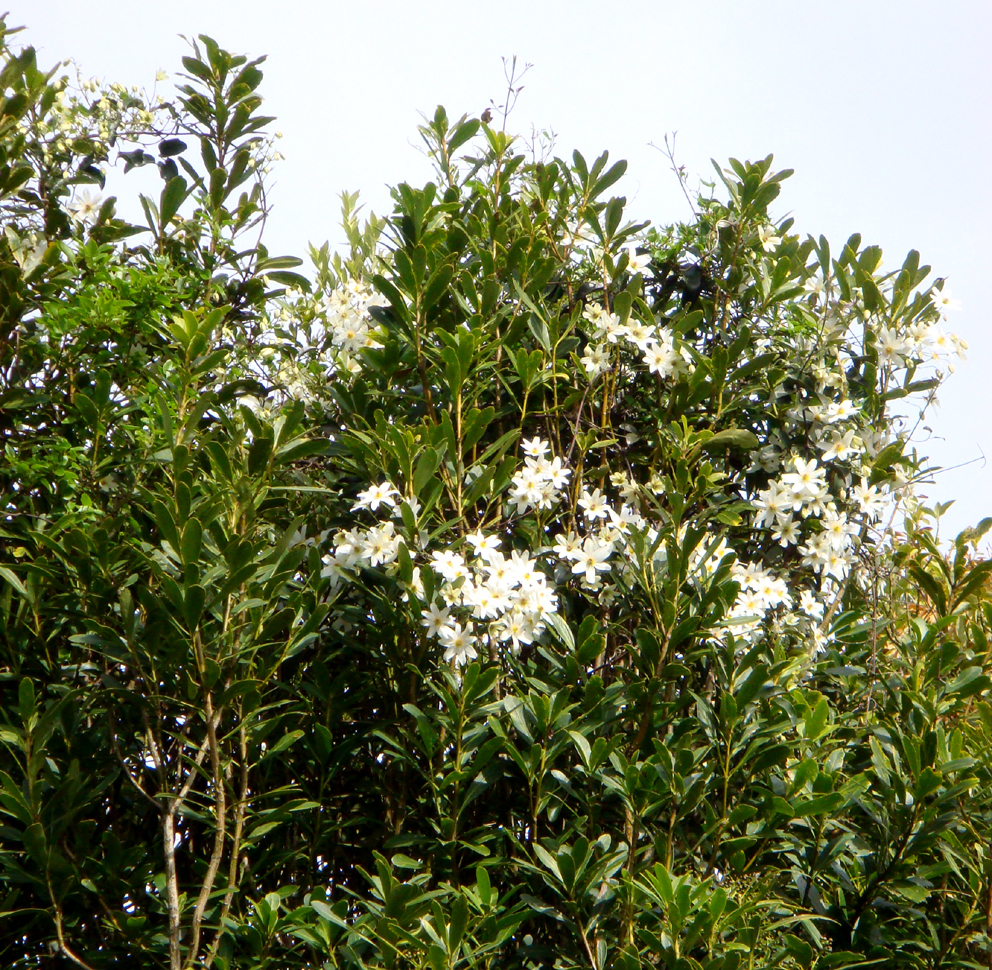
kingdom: Plantae
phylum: Tracheophyta
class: Magnoliopsida
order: Ranunculales
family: Ranunculaceae
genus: Clematis
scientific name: Clematis paniculata
